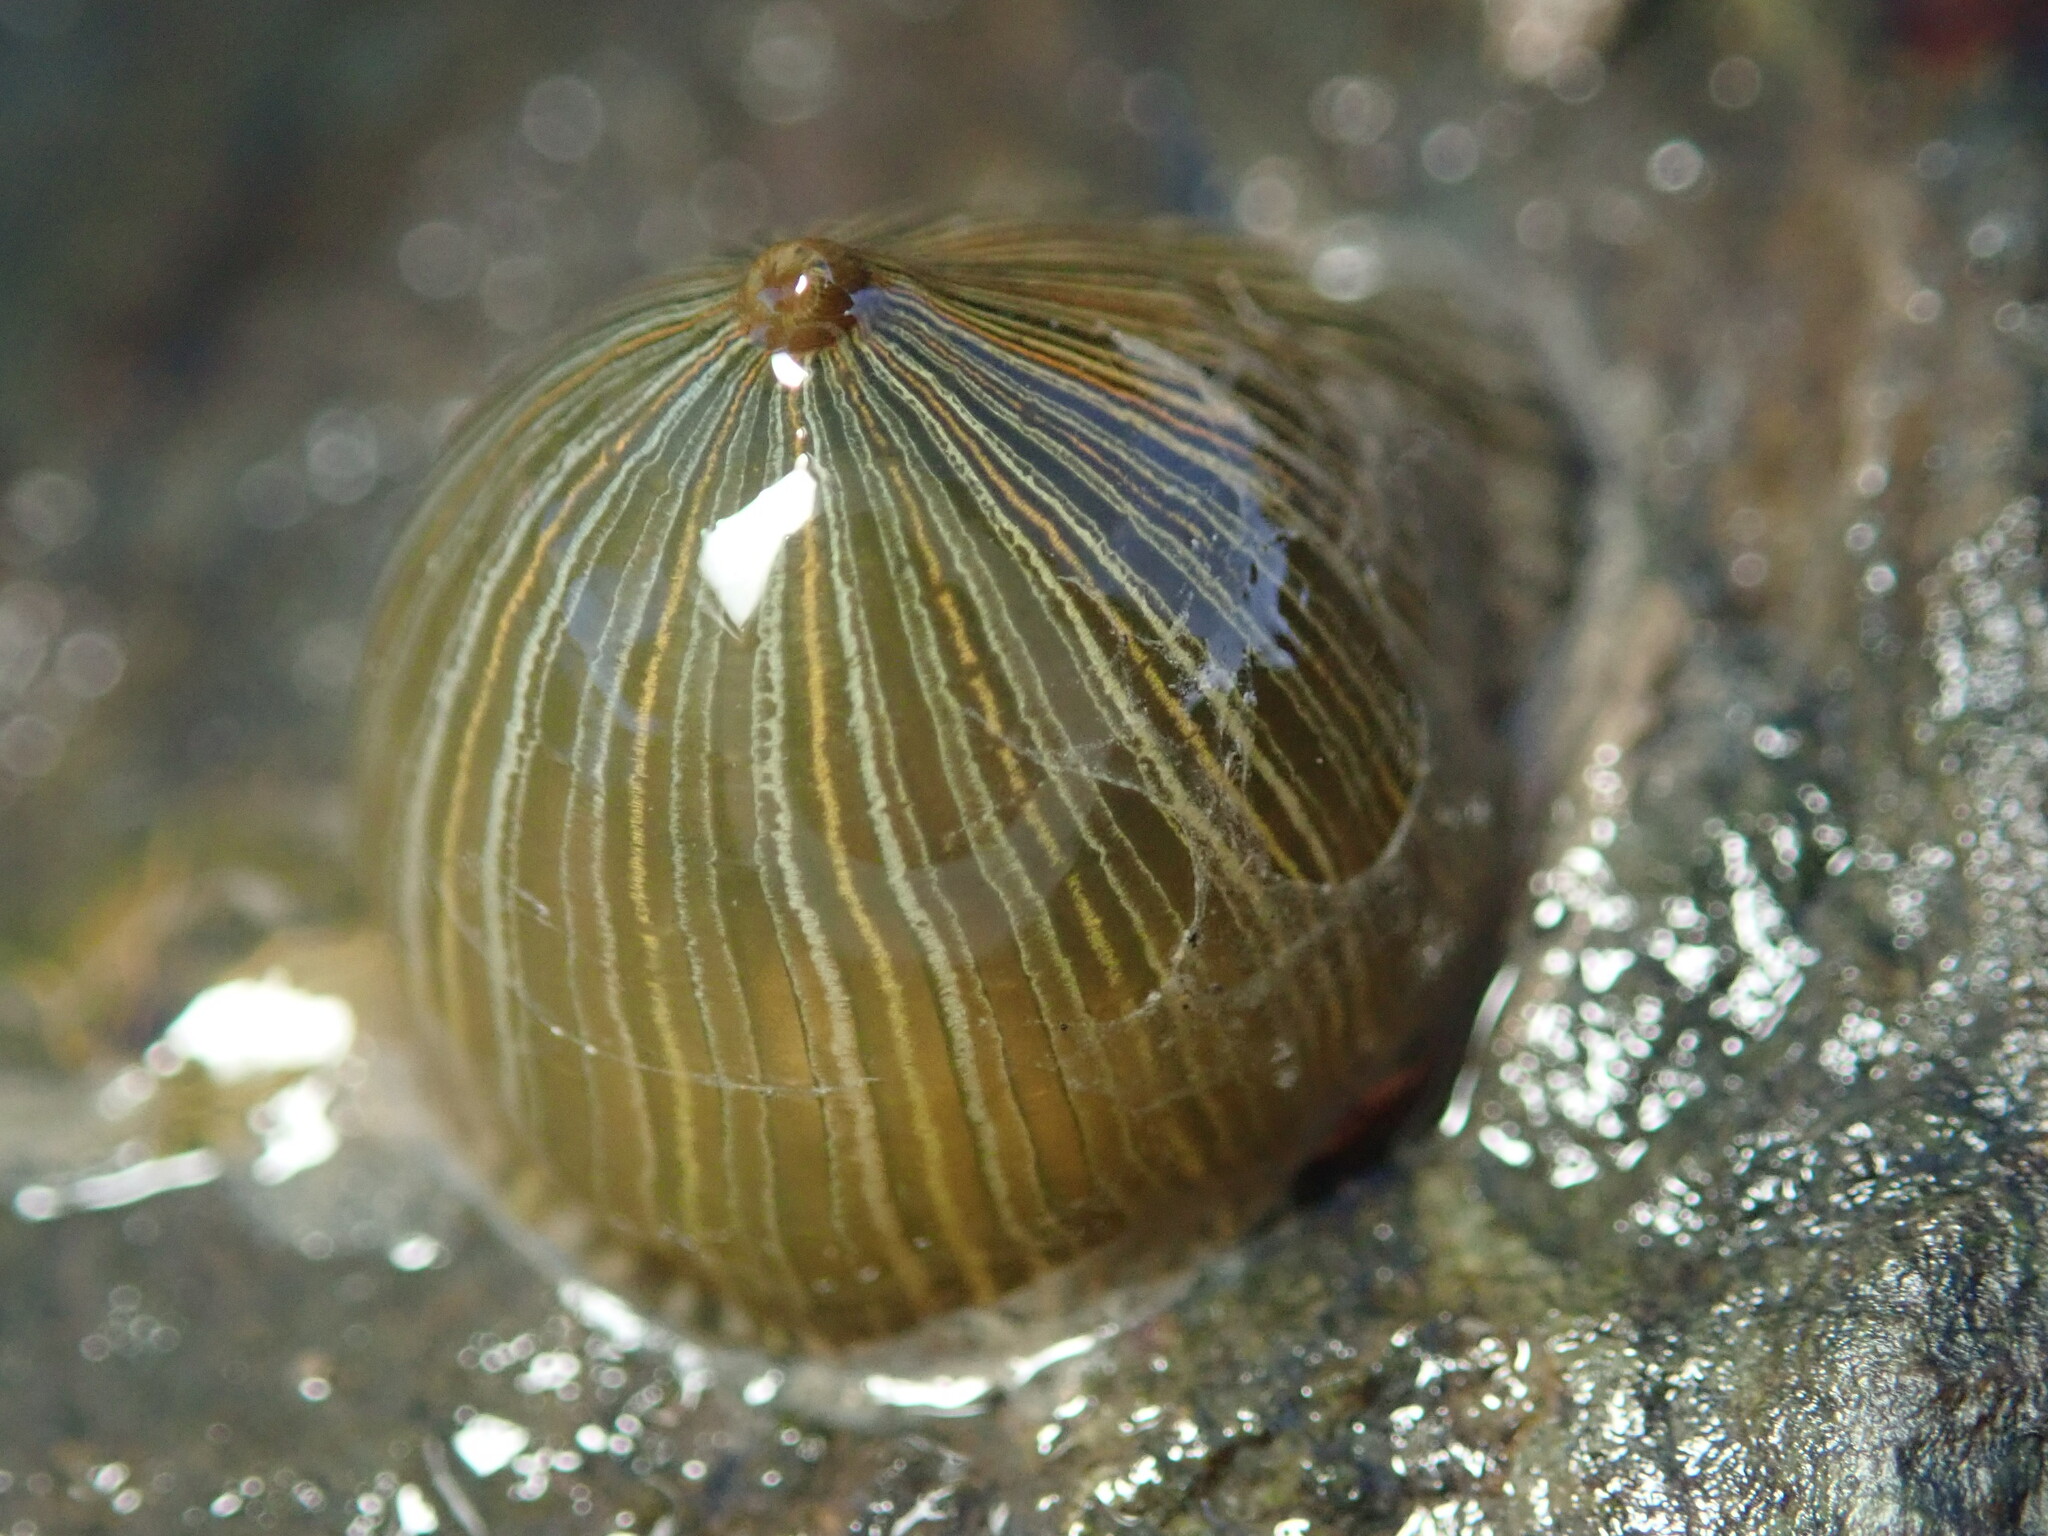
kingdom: Animalia
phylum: Cnidaria
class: Anthozoa
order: Actiniaria
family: Diadumenidae
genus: Diadumene
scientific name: Diadumene lineata
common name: Orange-striped anemone
